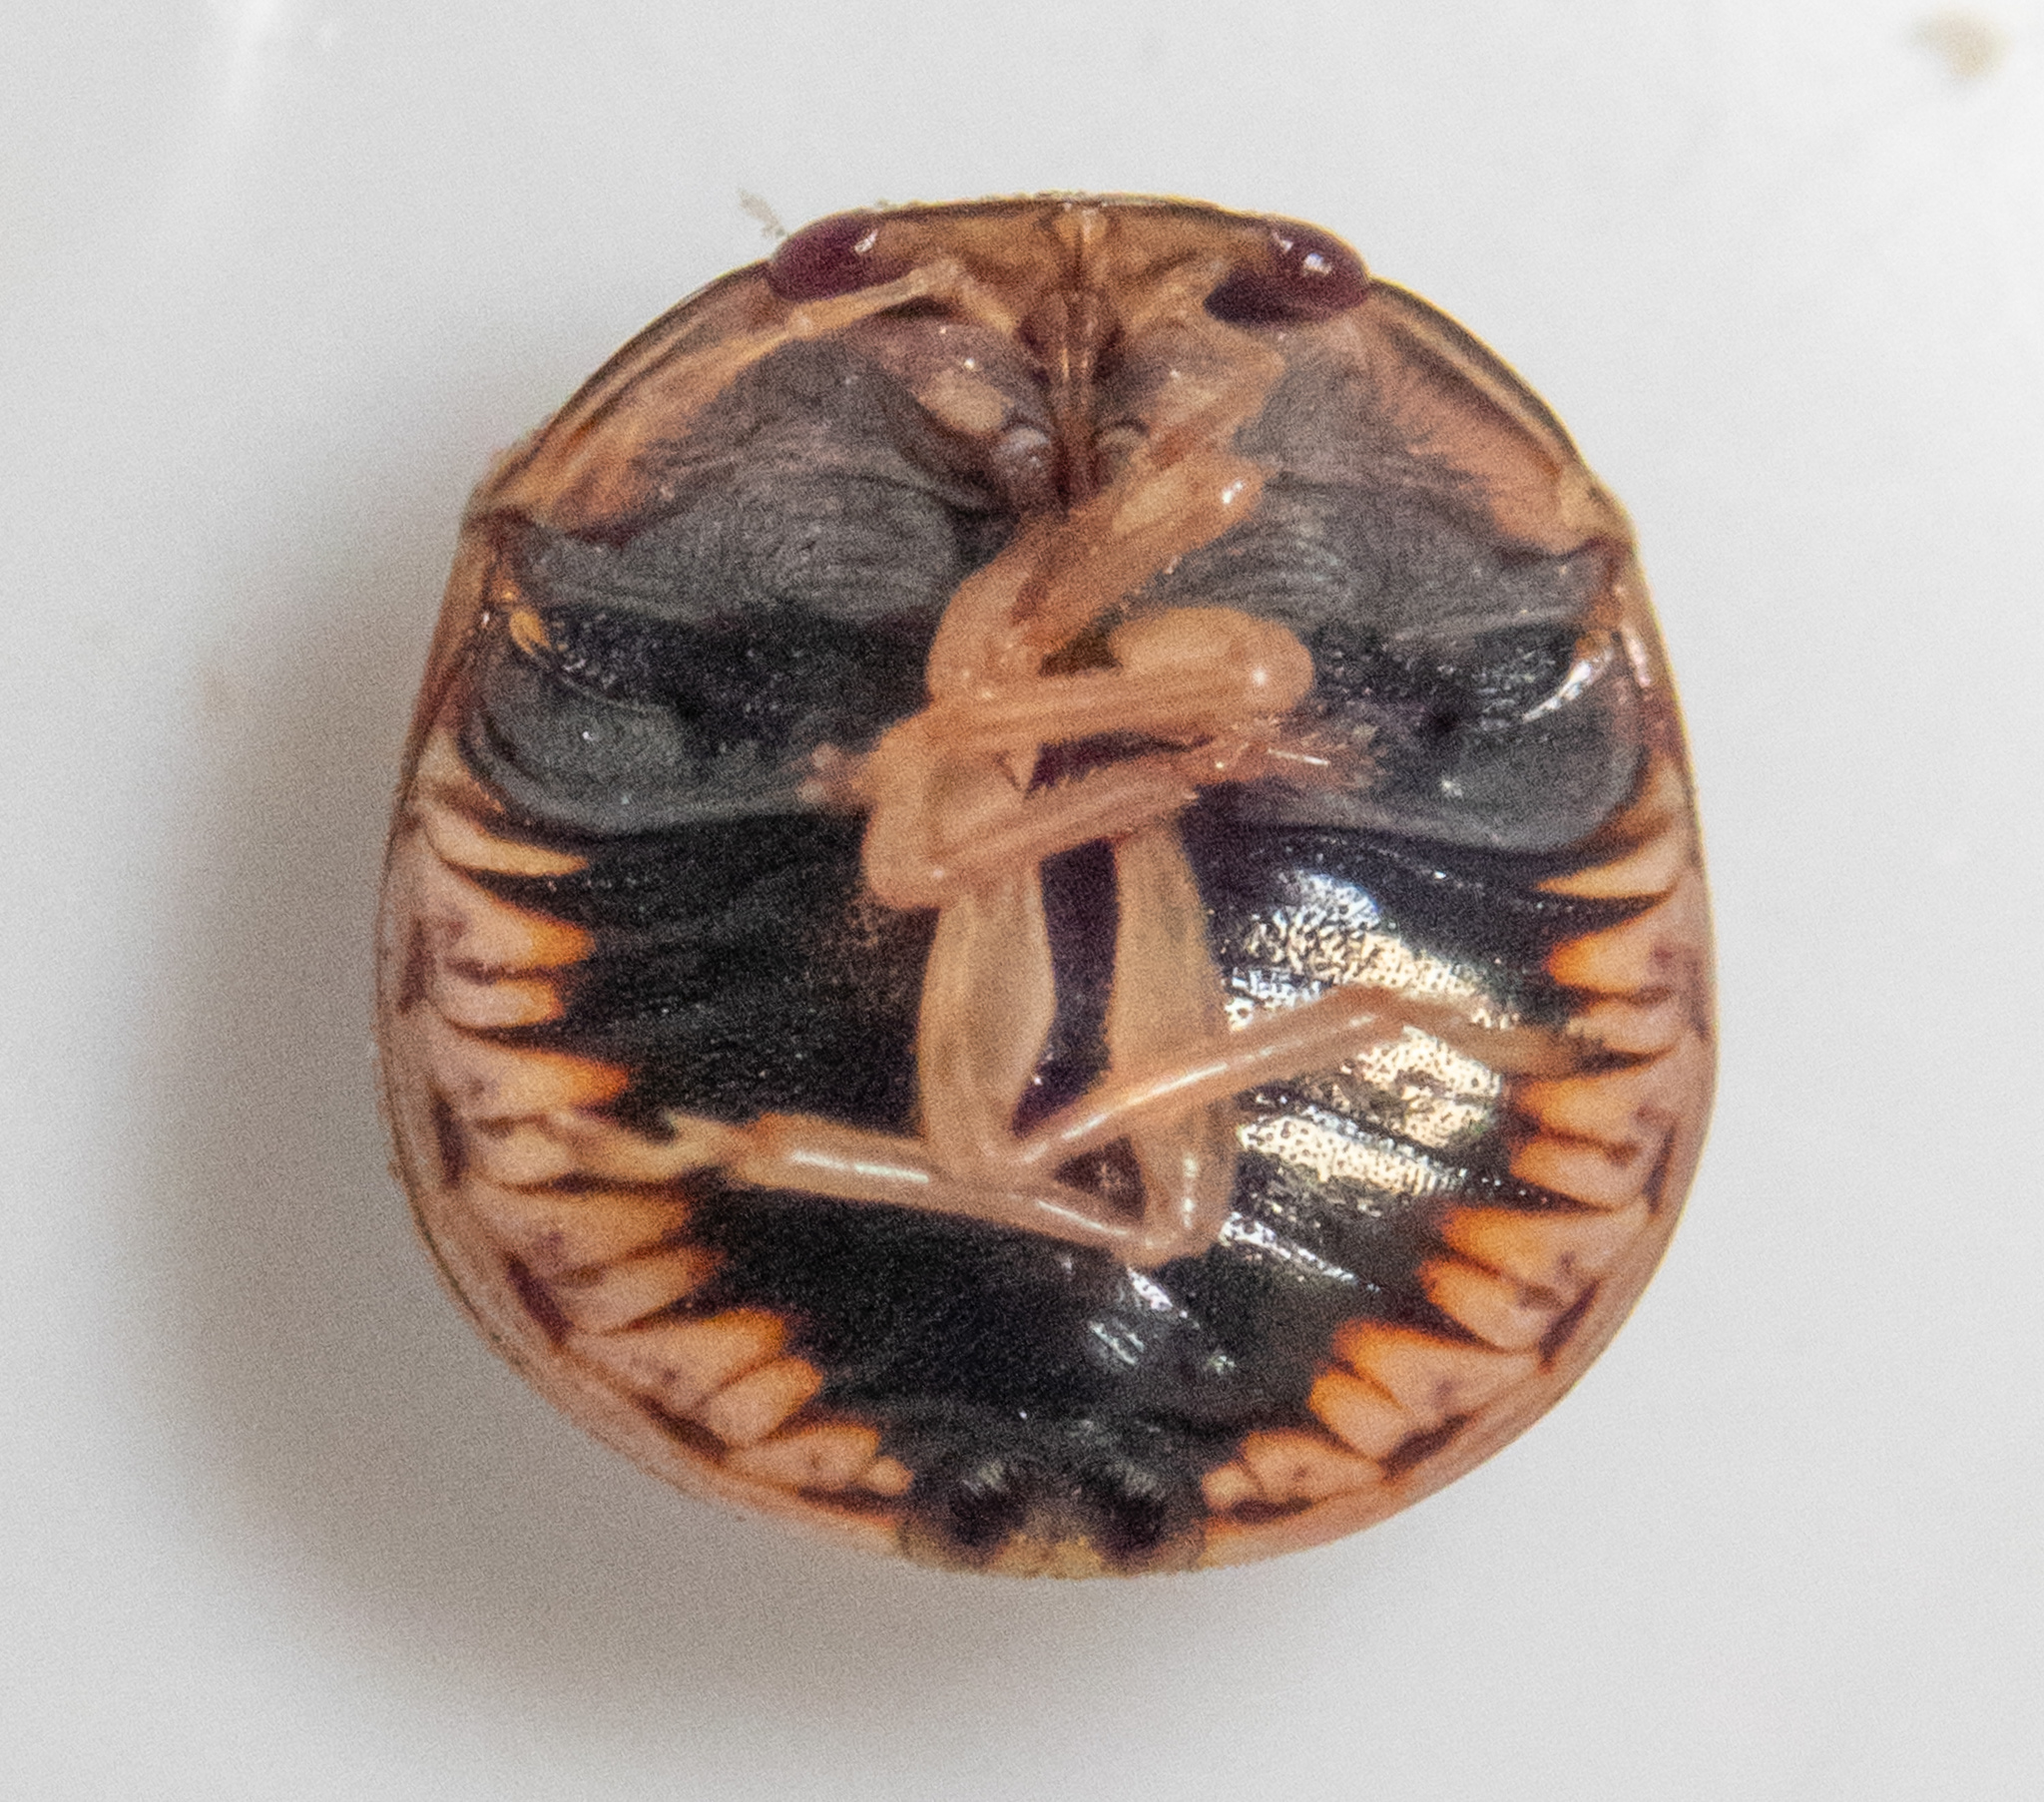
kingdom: Animalia
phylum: Arthropoda
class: Insecta
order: Hemiptera
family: Plataspidae
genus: Coptosoma
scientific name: Coptosoma
